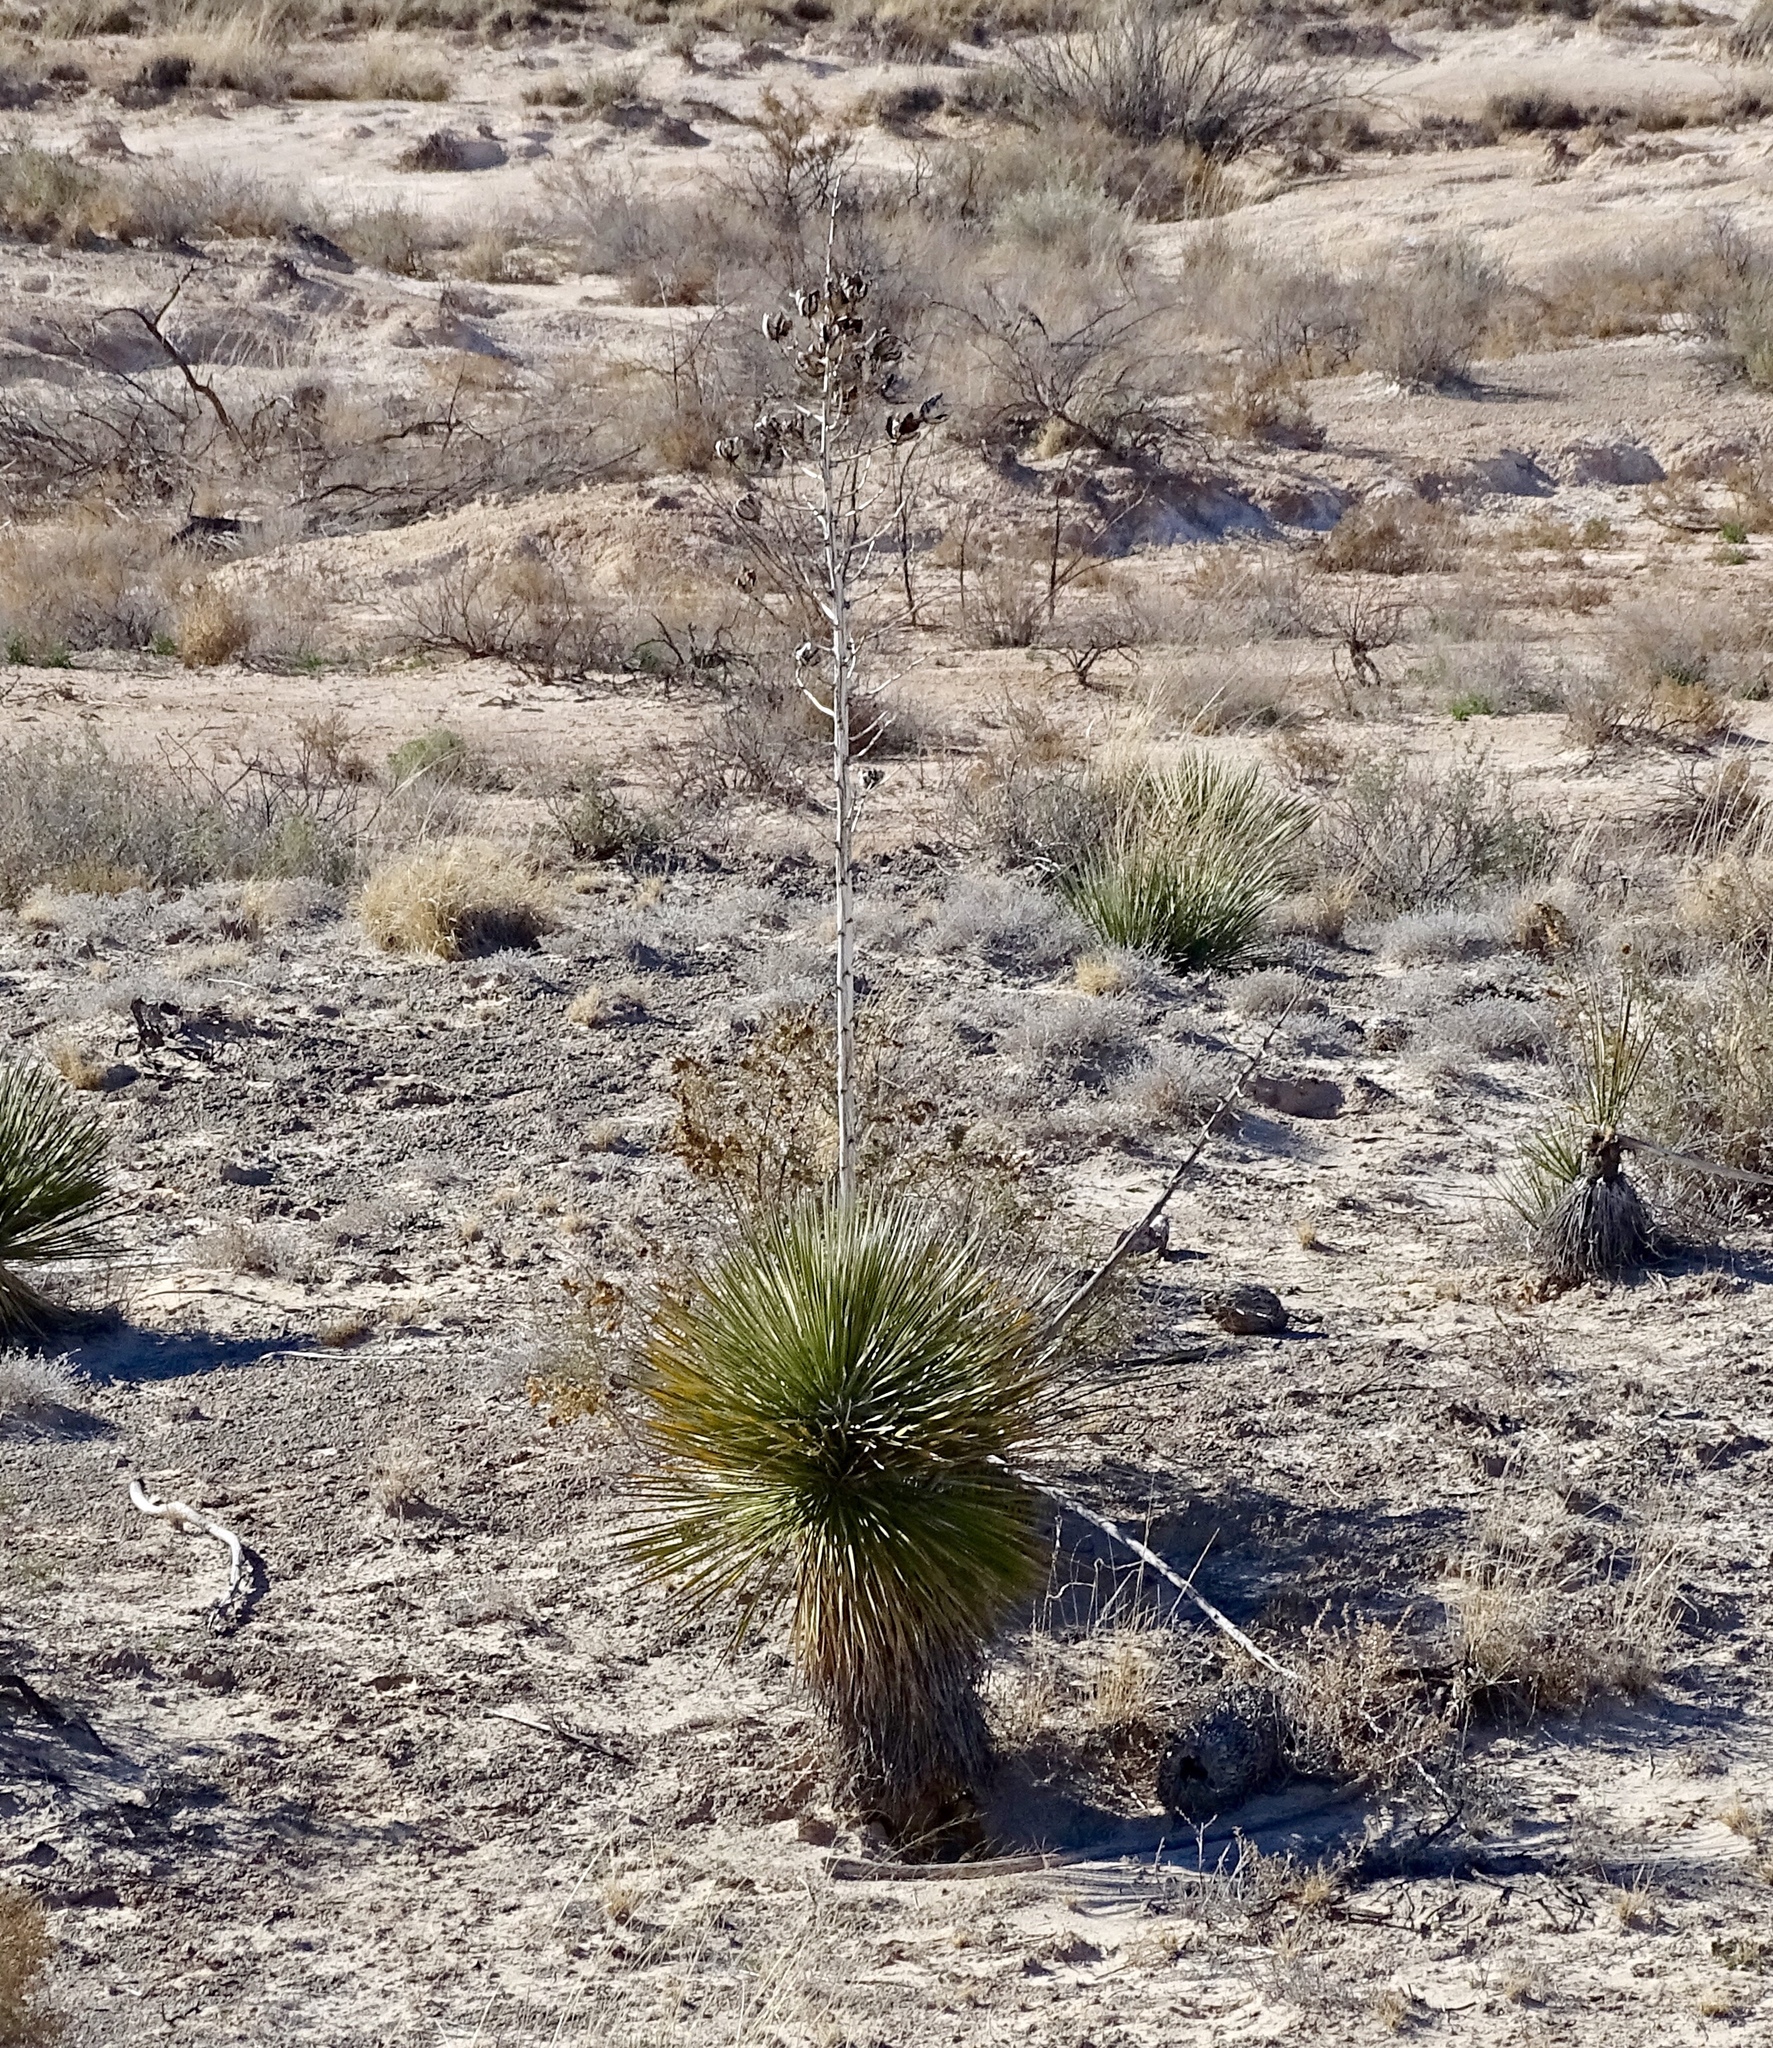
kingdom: Plantae
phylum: Tracheophyta
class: Liliopsida
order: Asparagales
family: Asparagaceae
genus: Yucca
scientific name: Yucca elata
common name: Palmella
